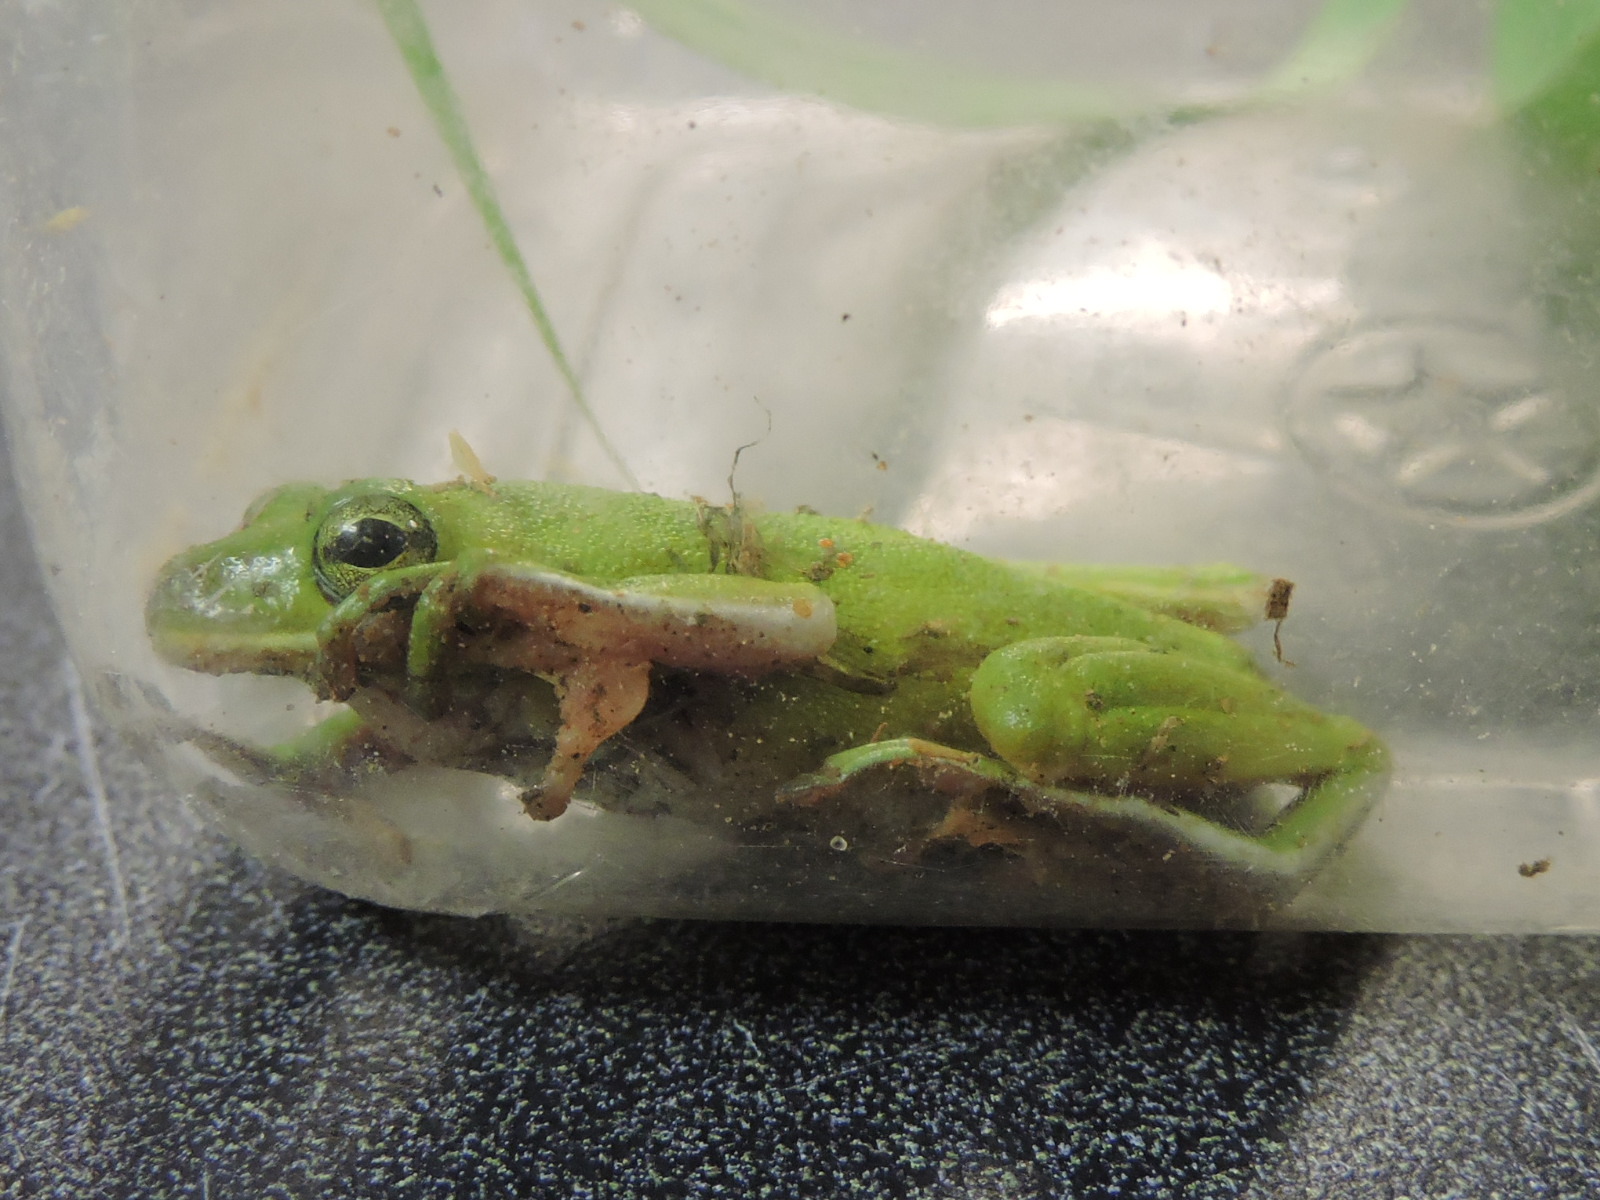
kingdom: Animalia
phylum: Chordata
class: Amphibia
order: Anura
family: Hylidae
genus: Dryophytes
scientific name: Dryophytes cinereus
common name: Green treefrog
